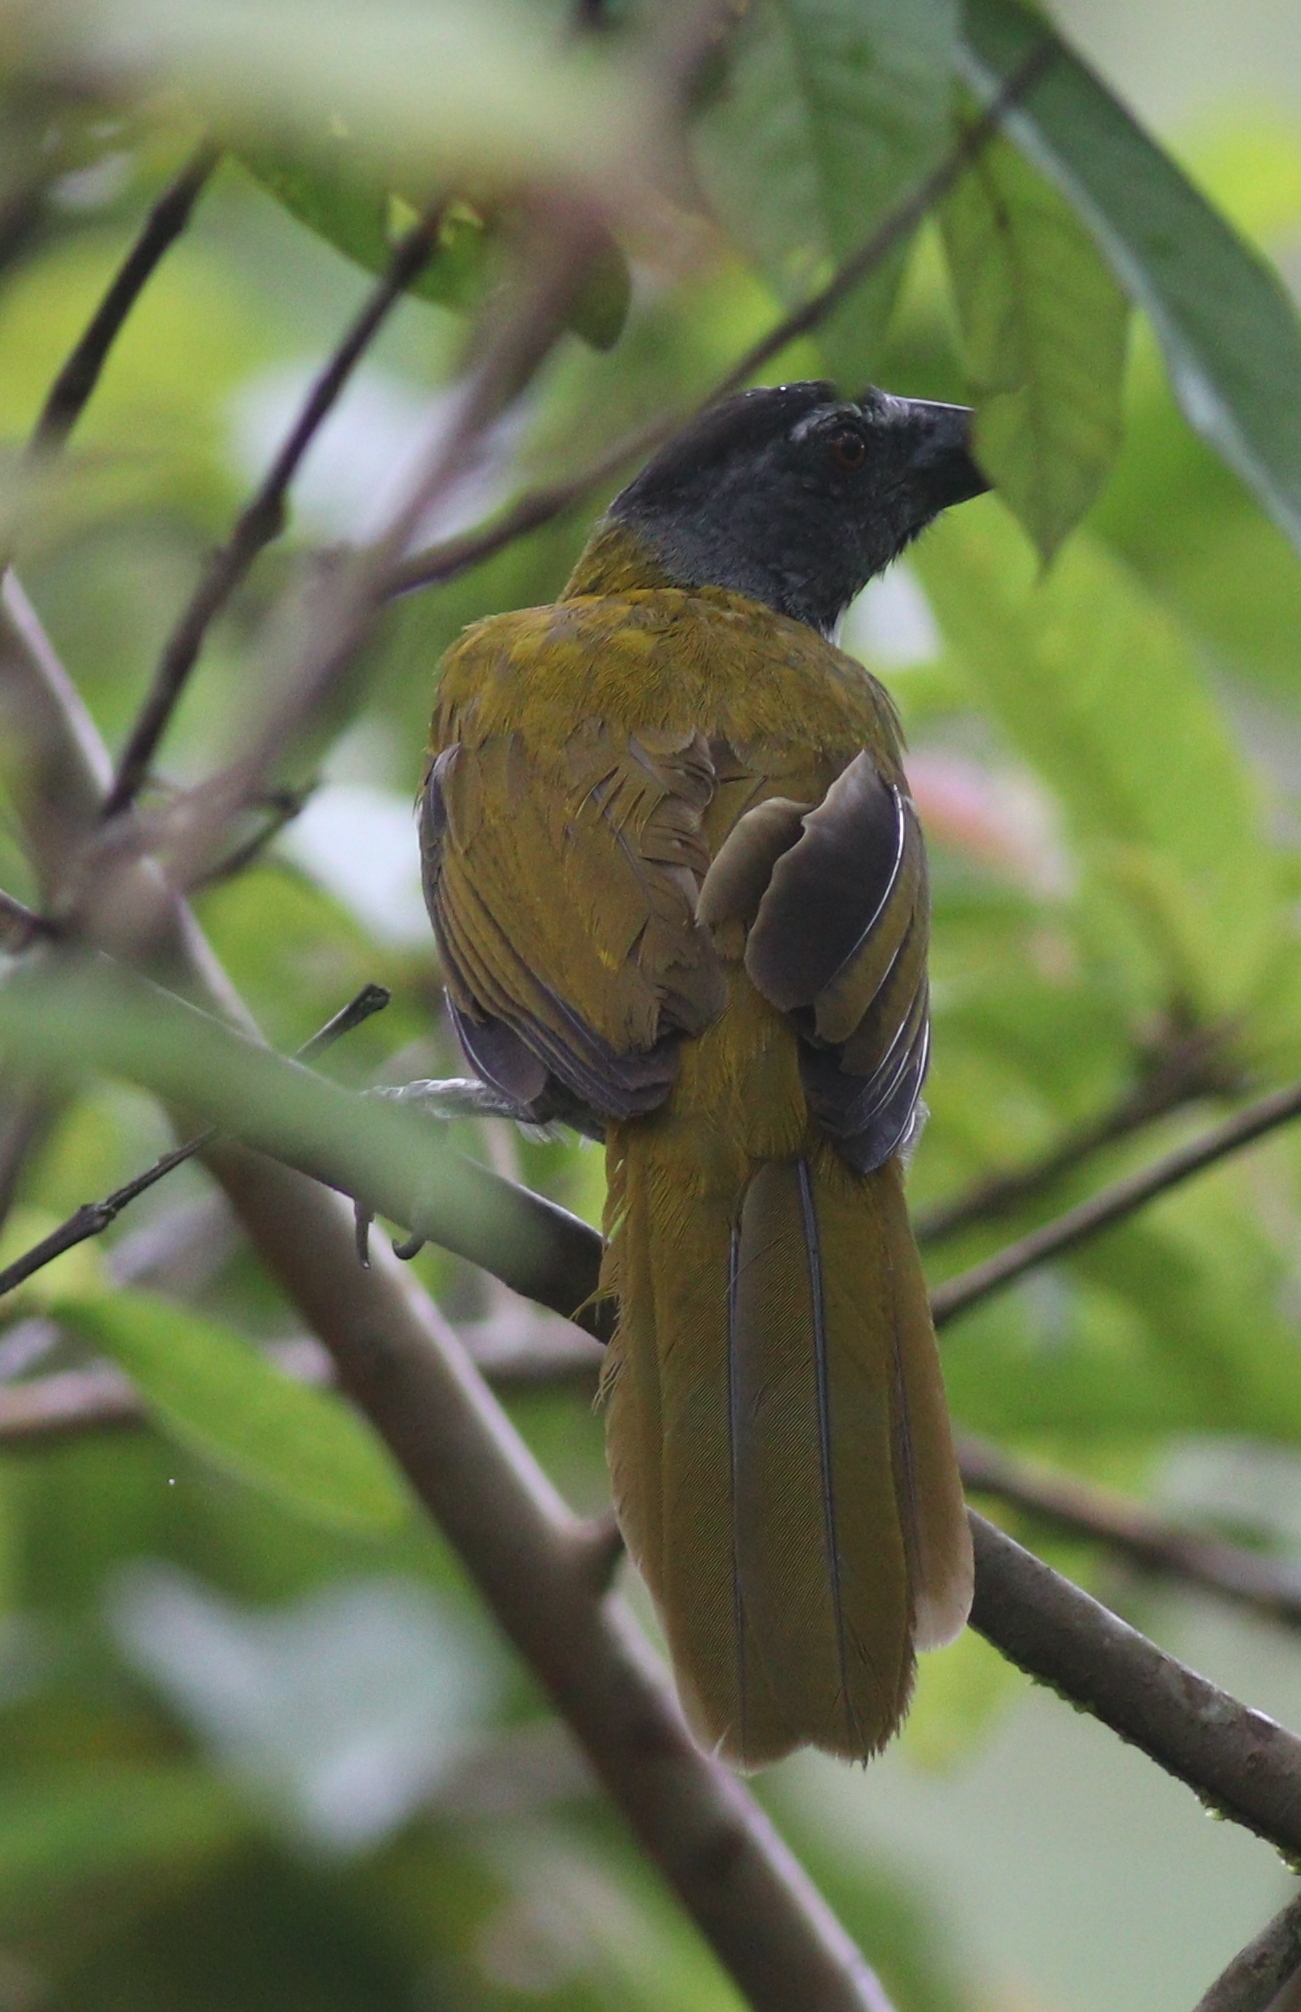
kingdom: Animalia
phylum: Chordata
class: Aves
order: Passeriformes
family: Thraupidae
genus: Saltator
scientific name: Saltator atriceps
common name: Black-headed saltator
